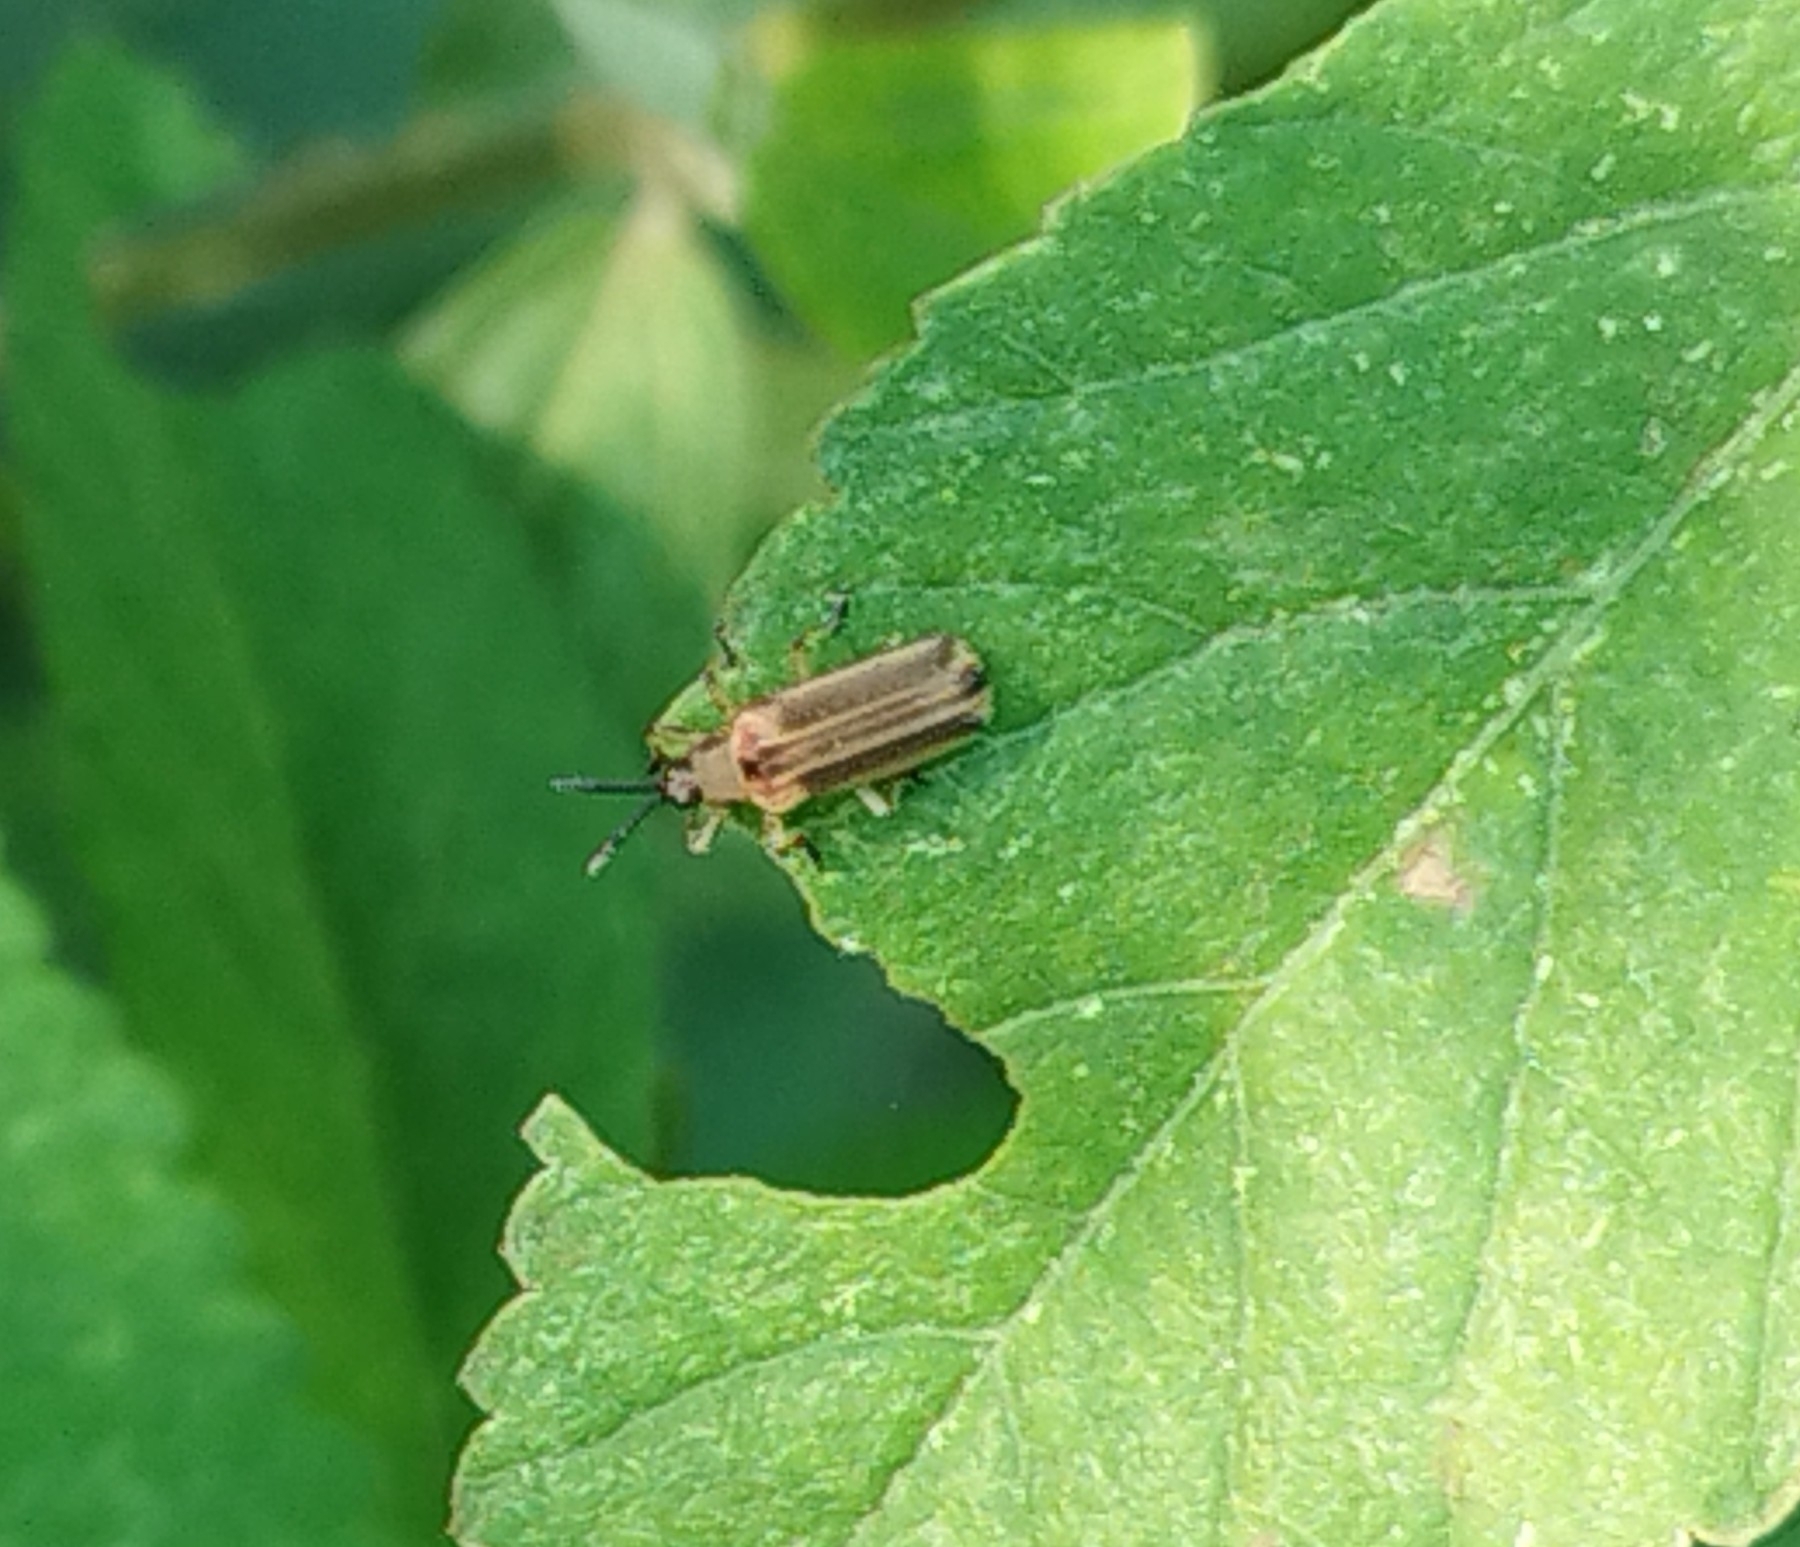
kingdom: Animalia
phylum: Arthropoda
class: Insecta
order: Coleoptera
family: Chrysomelidae
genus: Heterispa
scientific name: Heterispa costipennis
